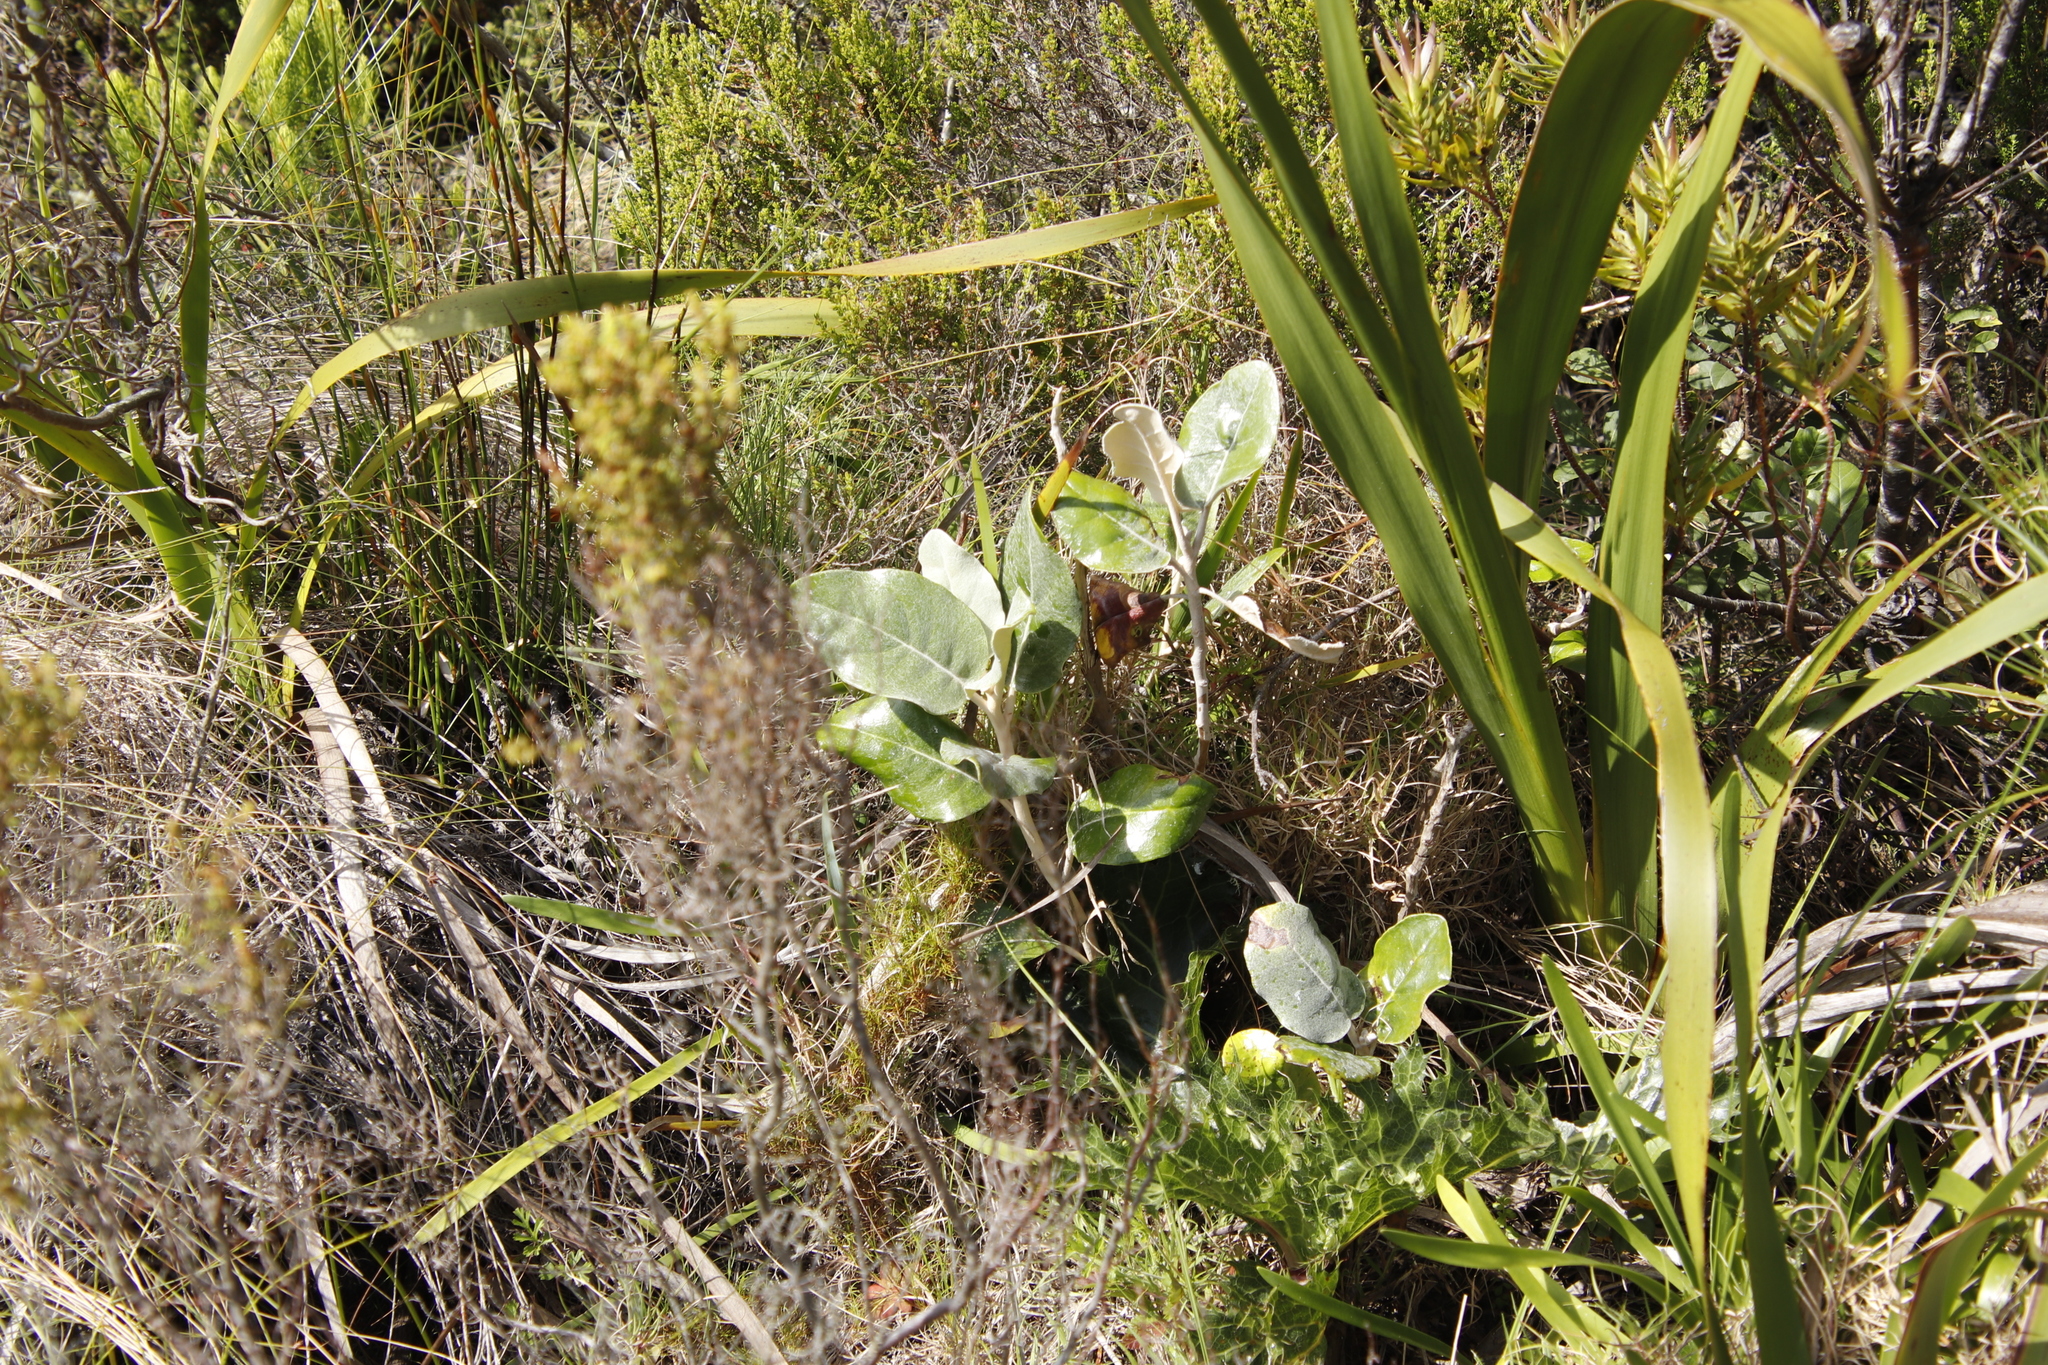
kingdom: Plantae
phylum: Tracheophyta
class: Magnoliopsida
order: Asterales
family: Asteraceae
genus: Capelio
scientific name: Capelio tabularis
